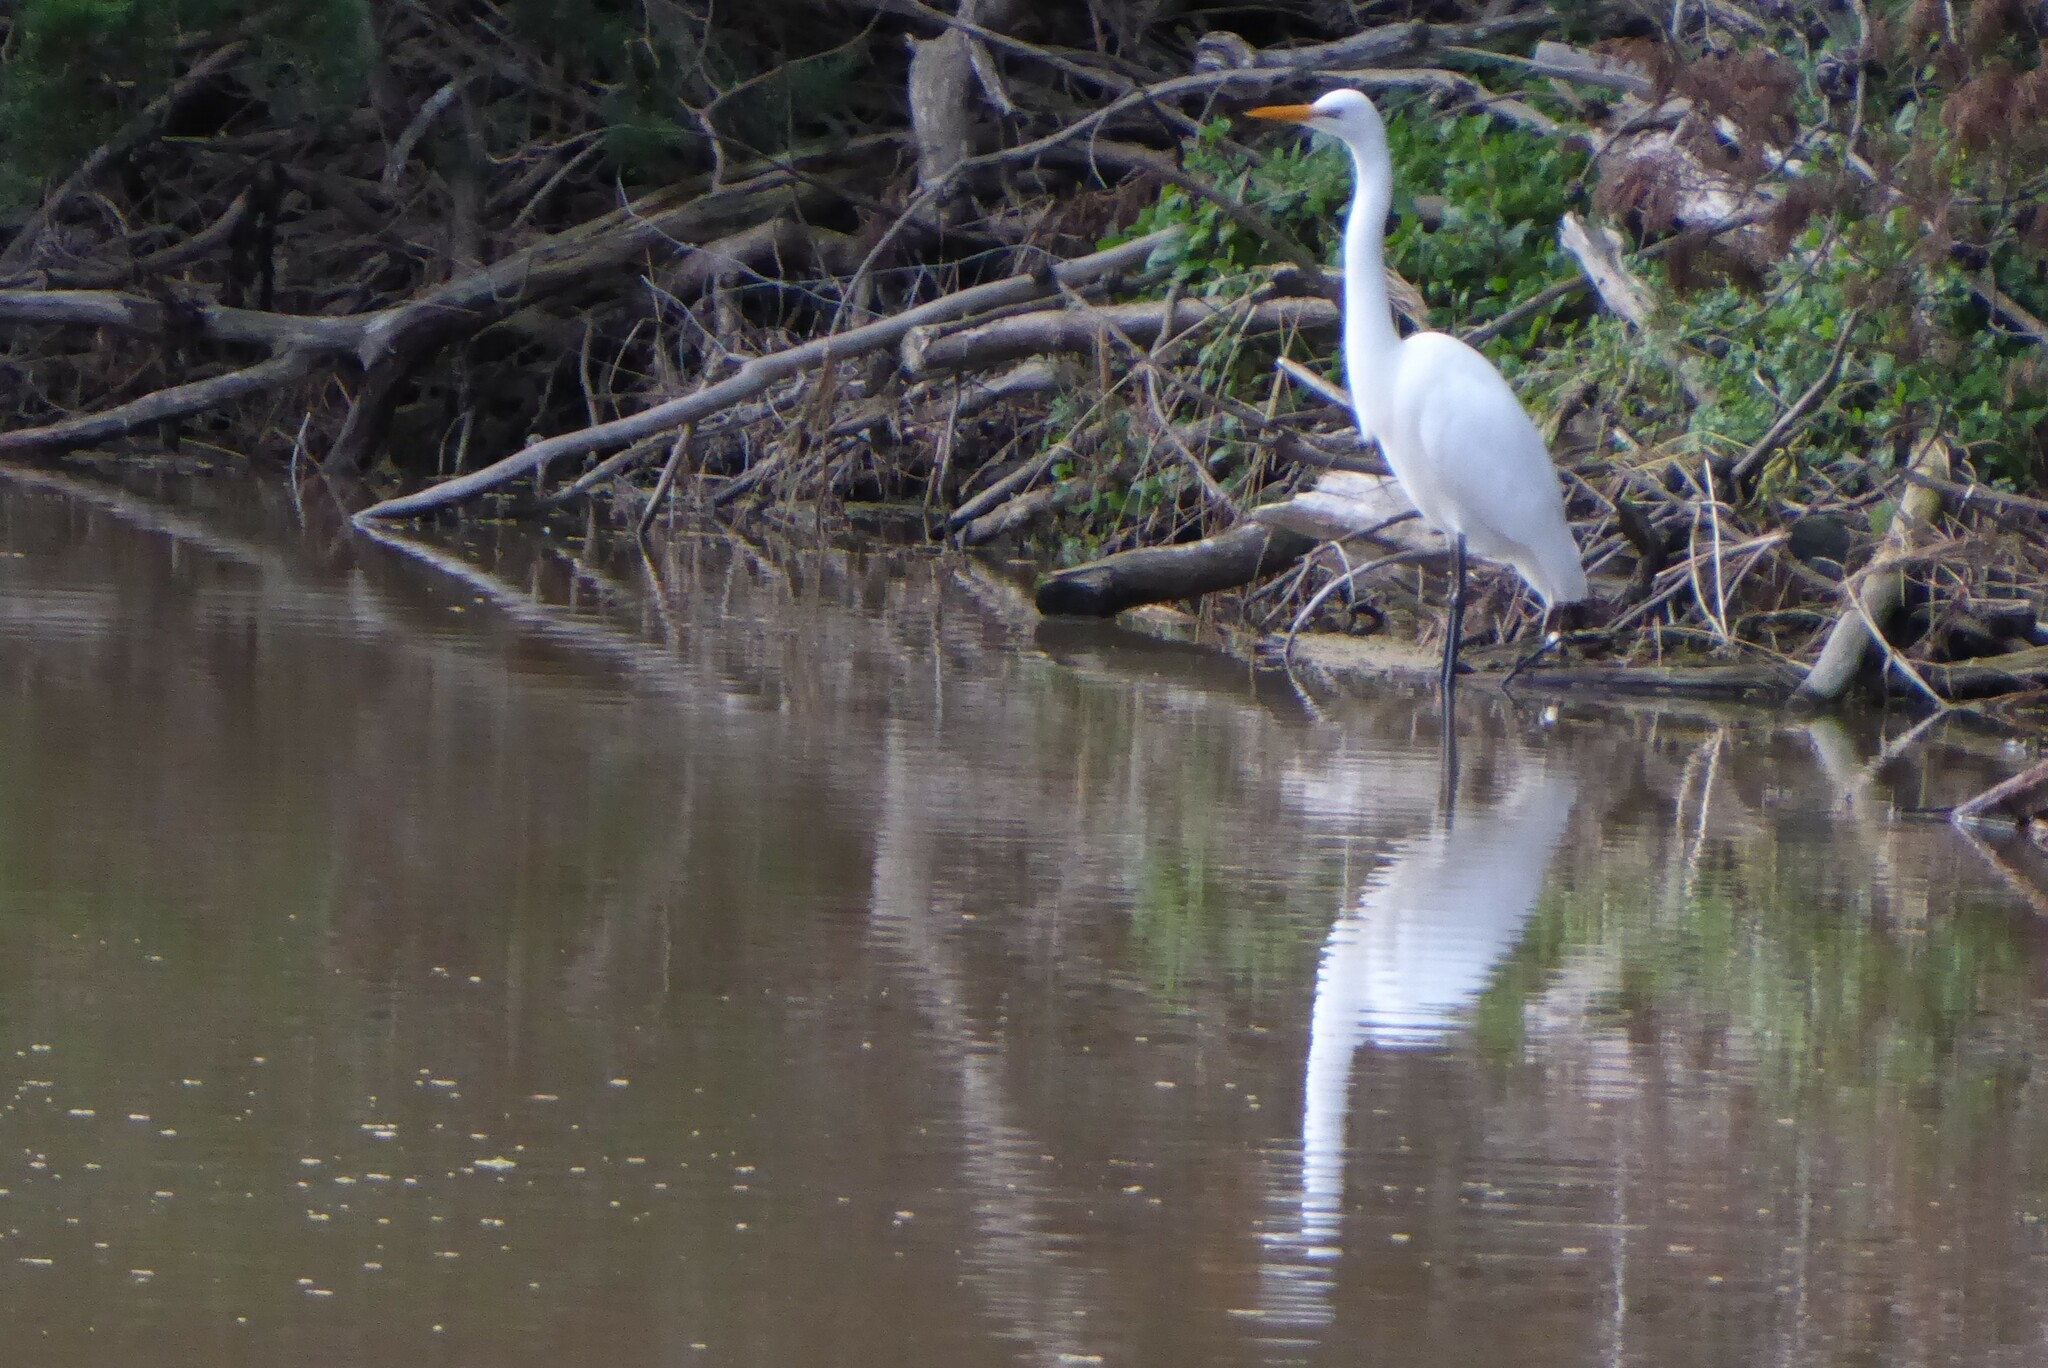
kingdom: Animalia
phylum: Chordata
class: Aves
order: Pelecaniformes
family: Ardeidae
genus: Ardea
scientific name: Ardea modesta
